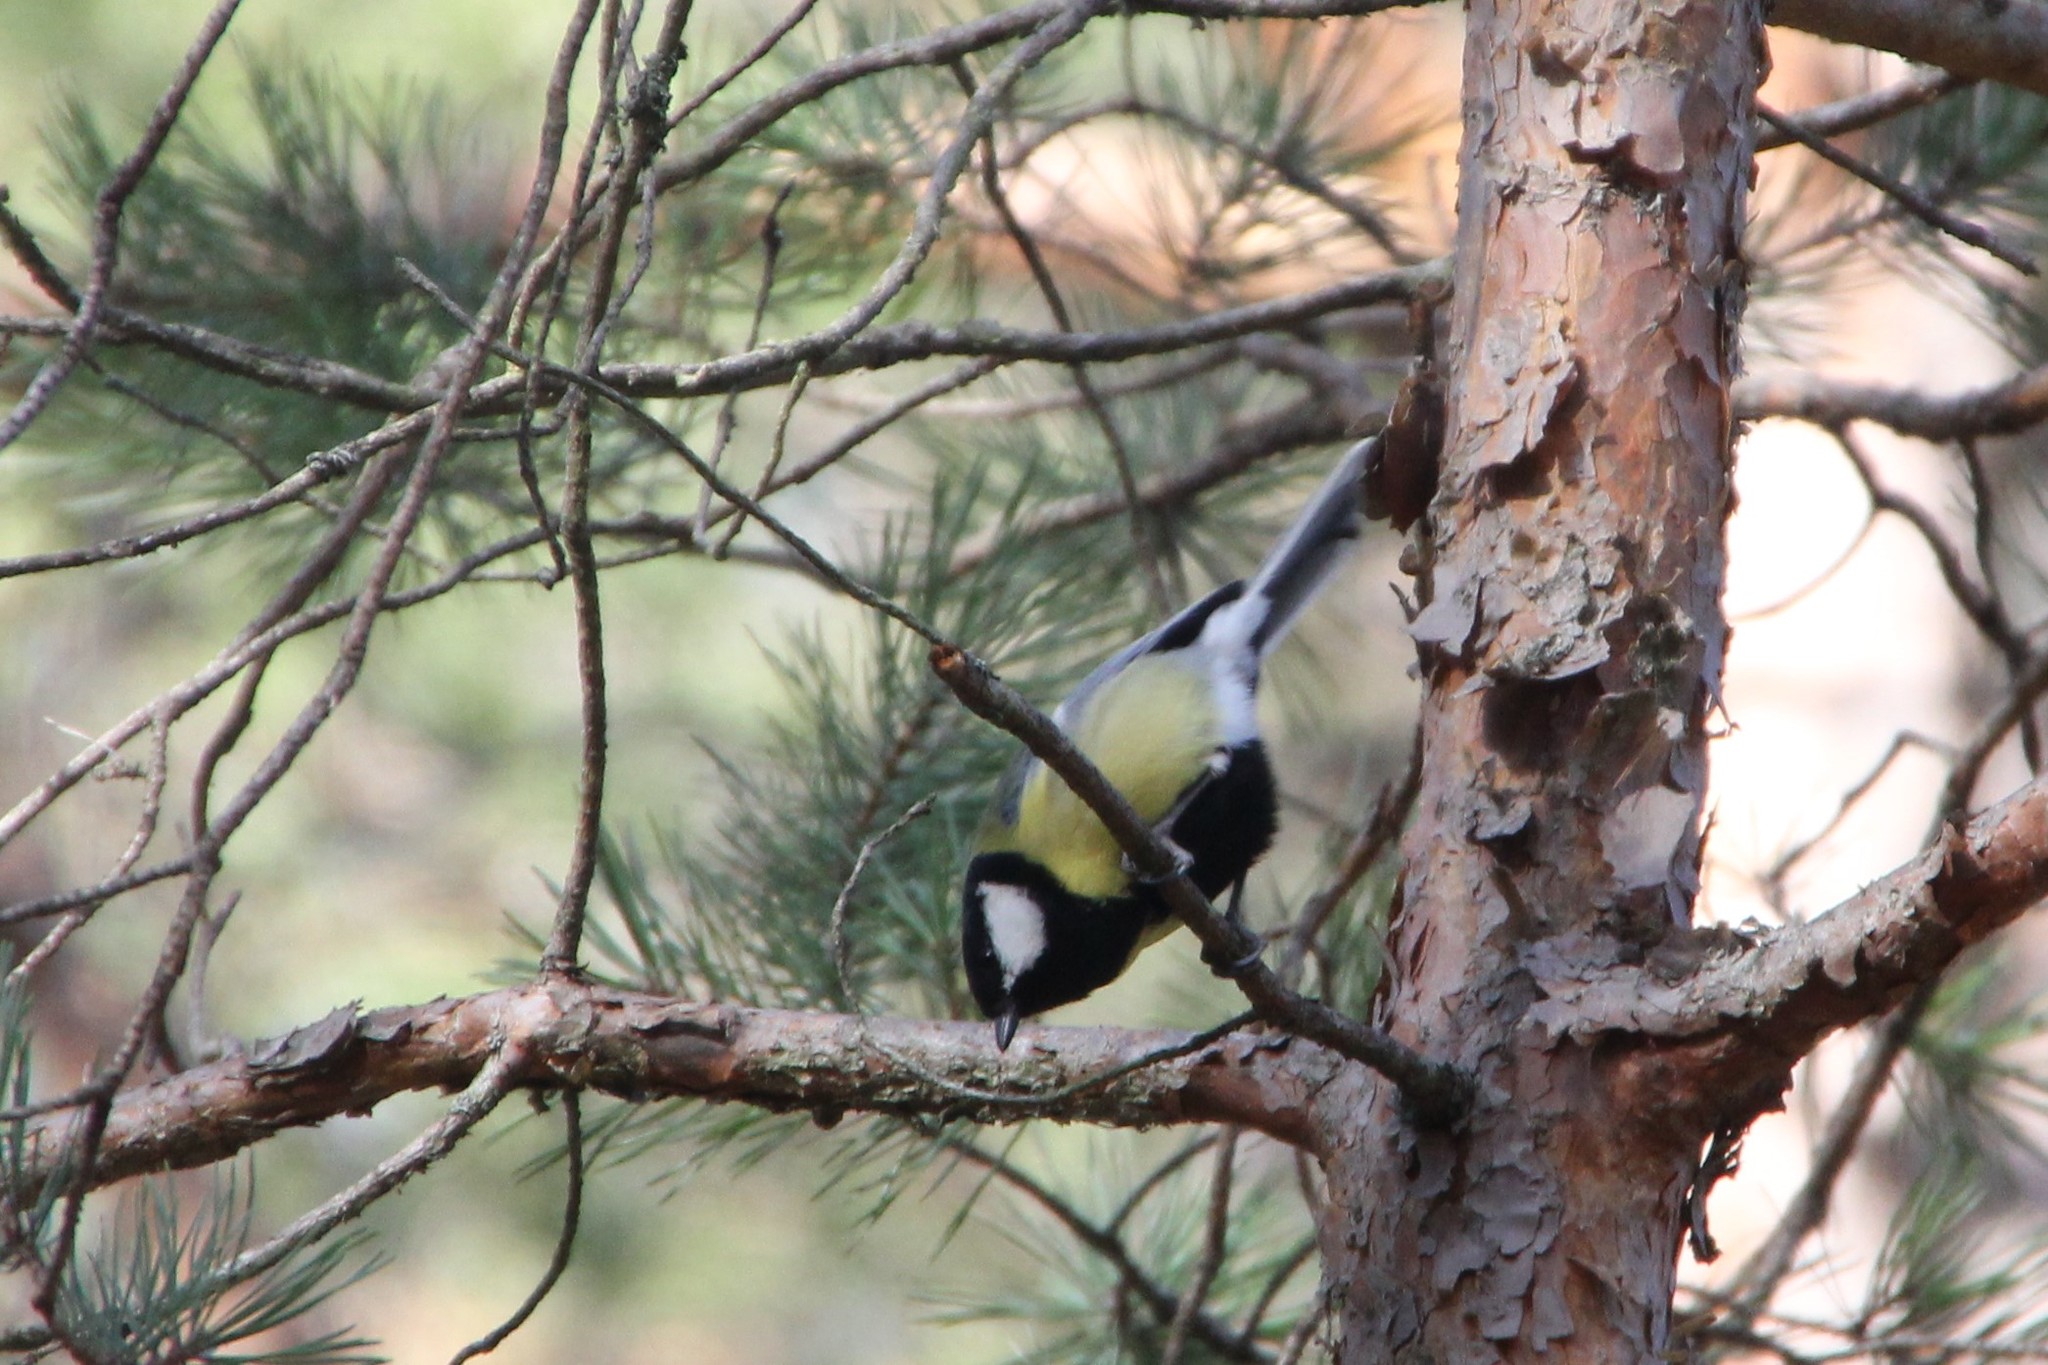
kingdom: Animalia
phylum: Chordata
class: Aves
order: Passeriformes
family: Paridae
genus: Parus
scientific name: Parus major
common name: Great tit
